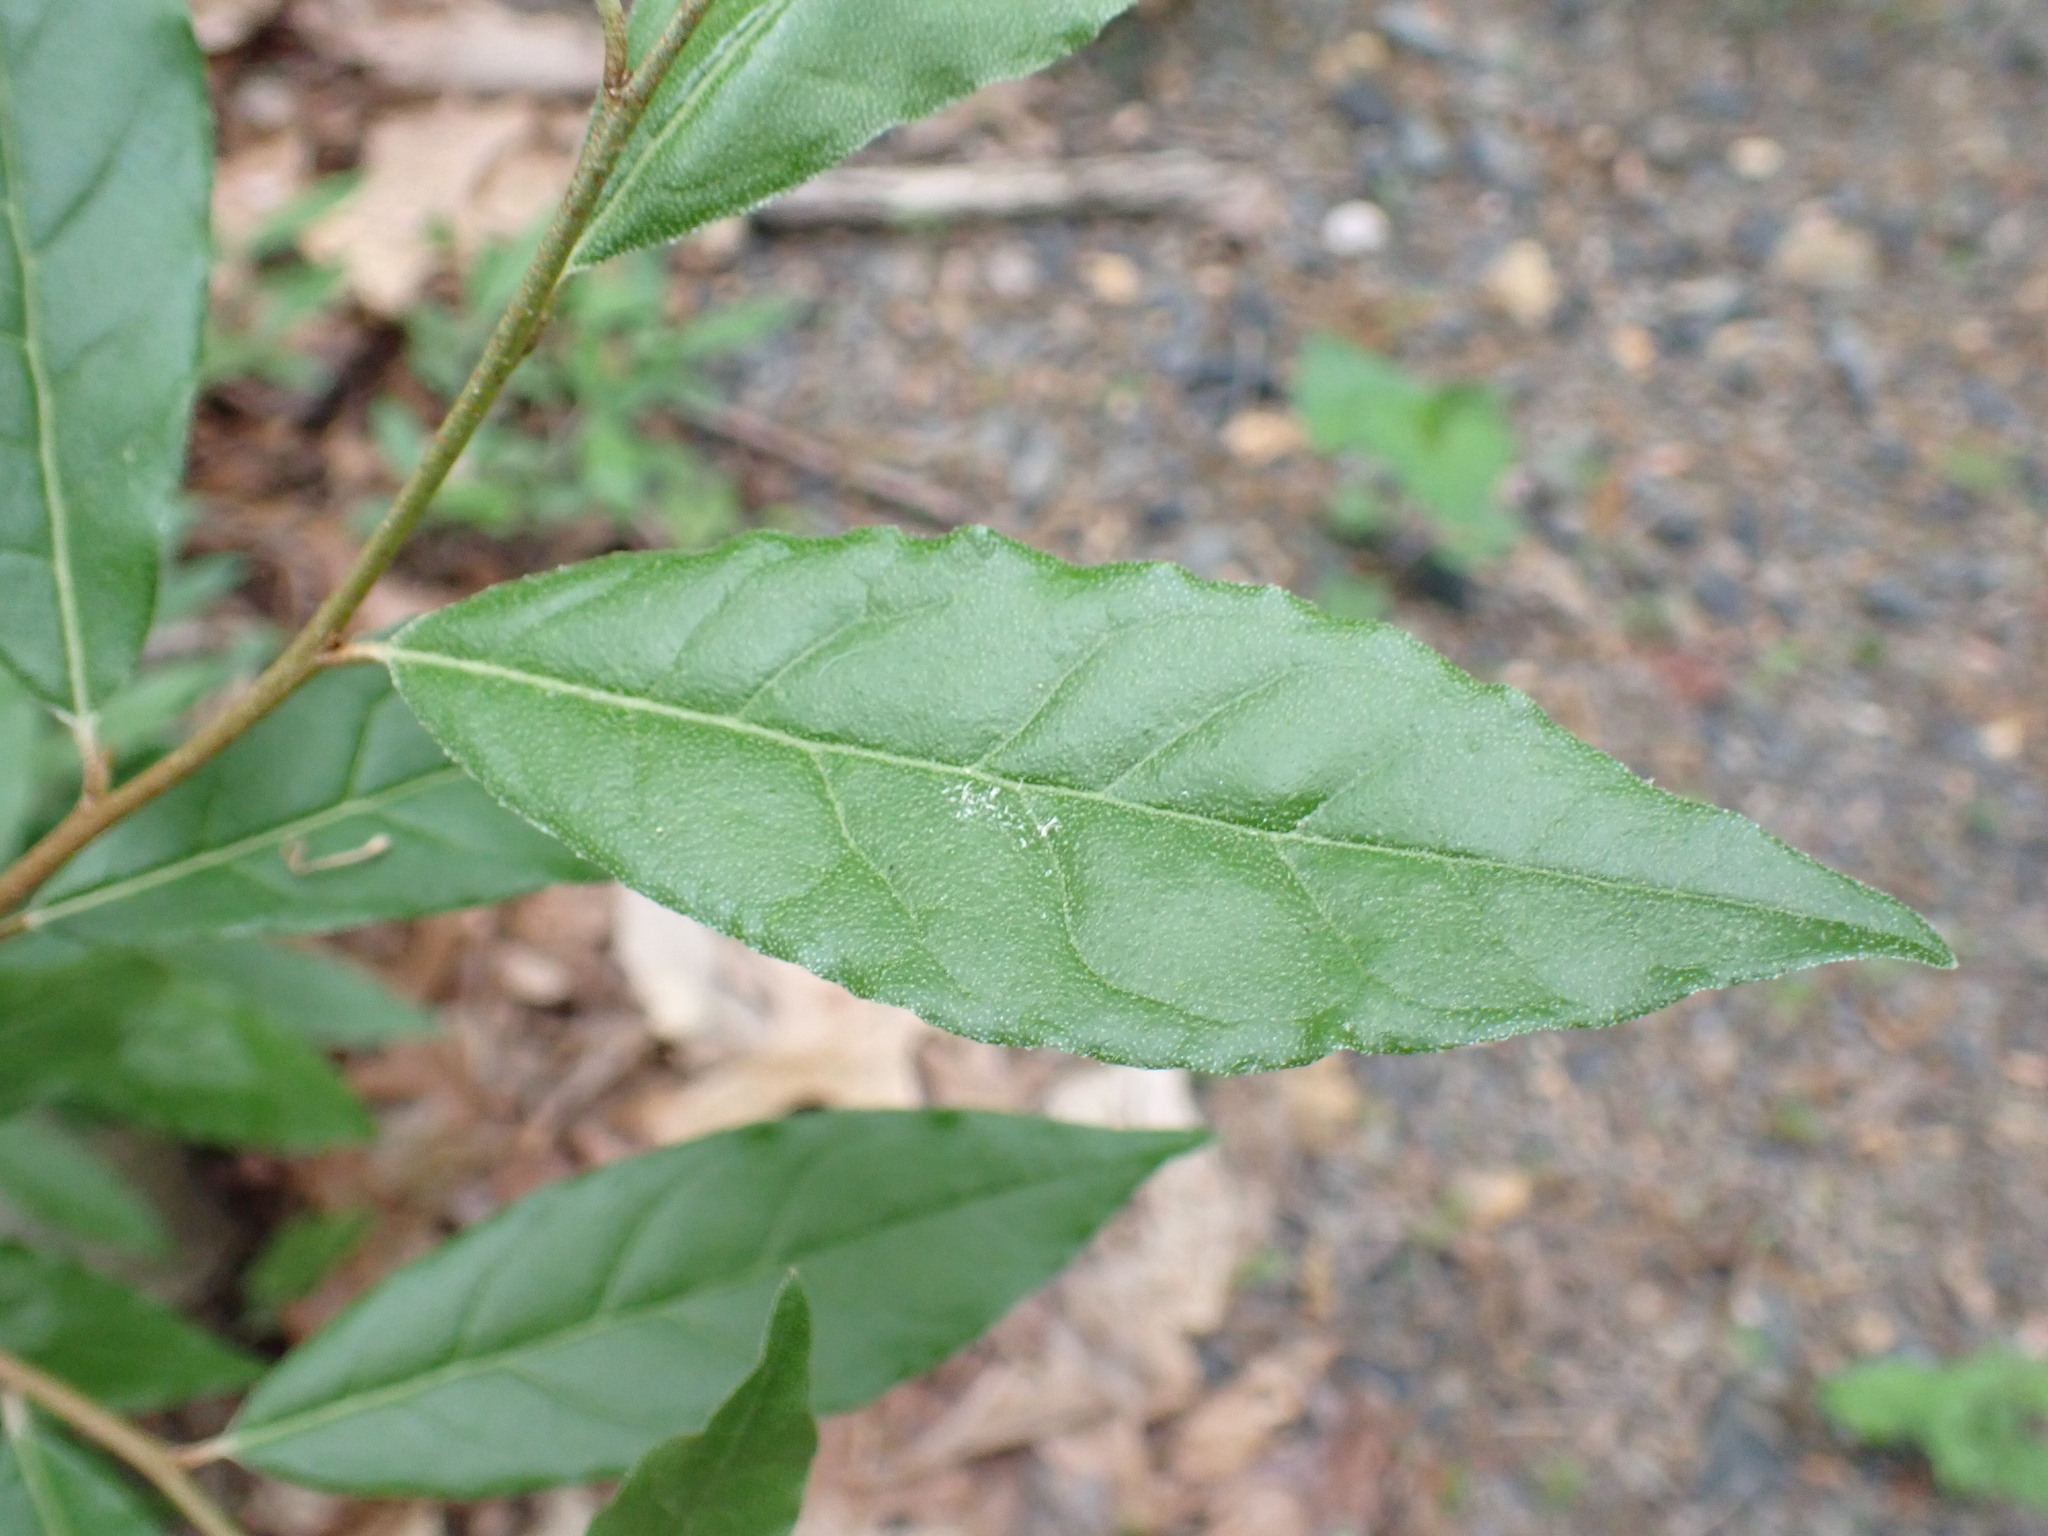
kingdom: Plantae
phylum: Tracheophyta
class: Magnoliopsida
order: Rosales
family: Elaeagnaceae
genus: Elaeagnus
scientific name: Elaeagnus umbellata
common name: Autumn olive
